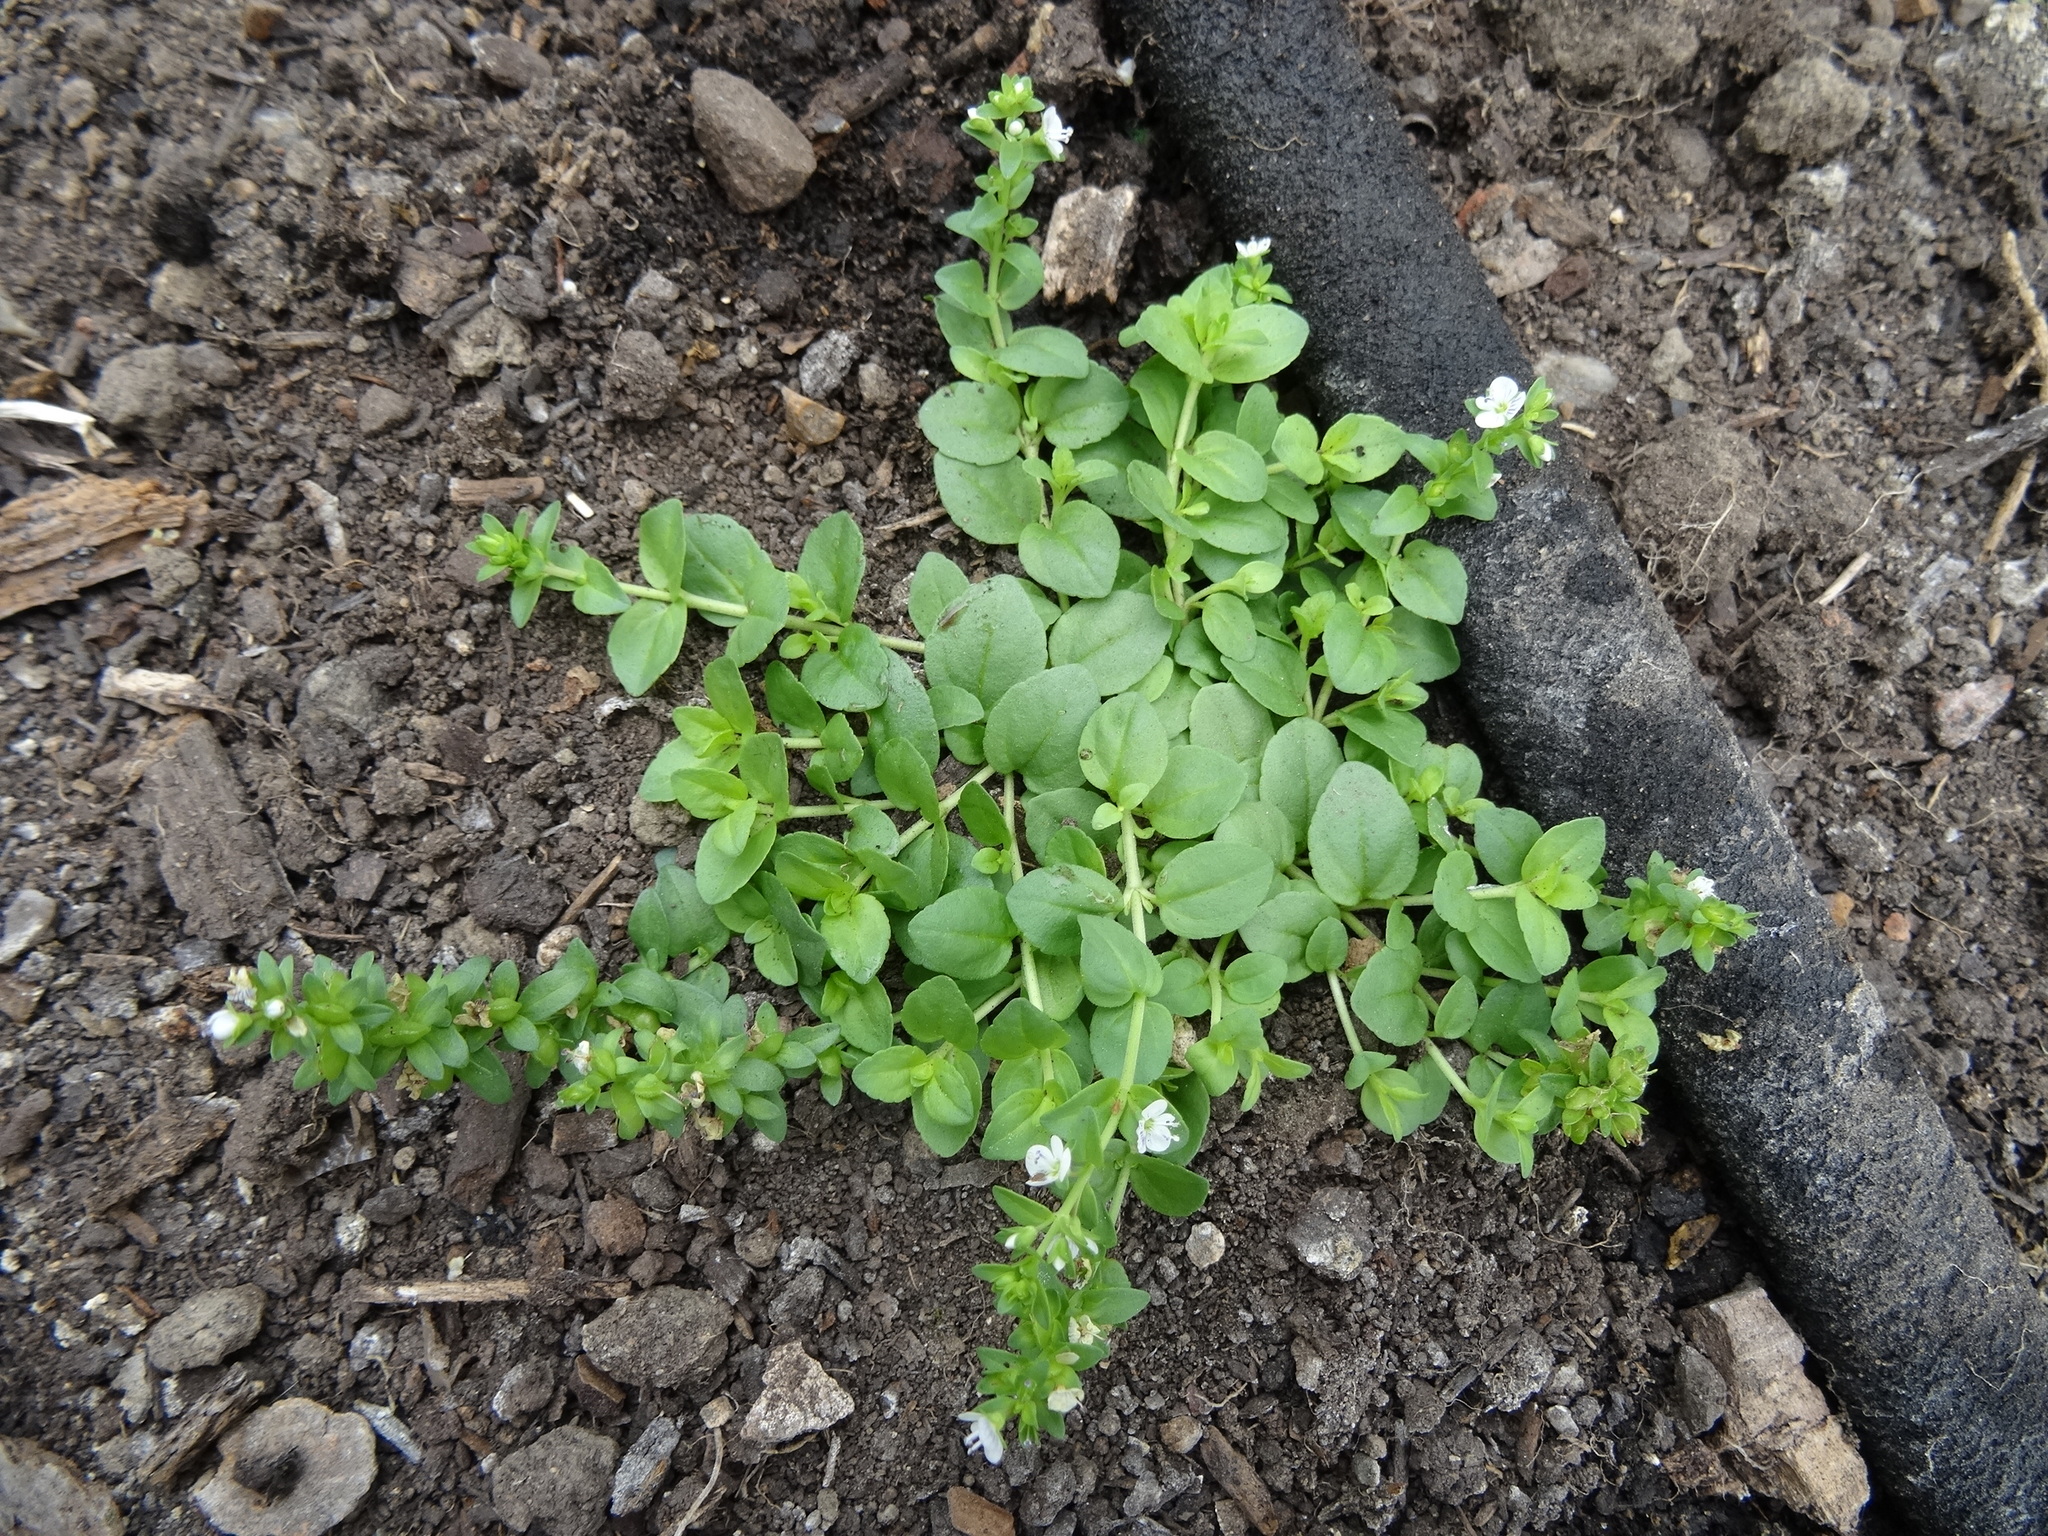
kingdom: Plantae
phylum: Tracheophyta
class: Magnoliopsida
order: Lamiales
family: Plantaginaceae
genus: Veronica
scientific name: Veronica serpyllifolia
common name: Thyme-leaved speedwell
